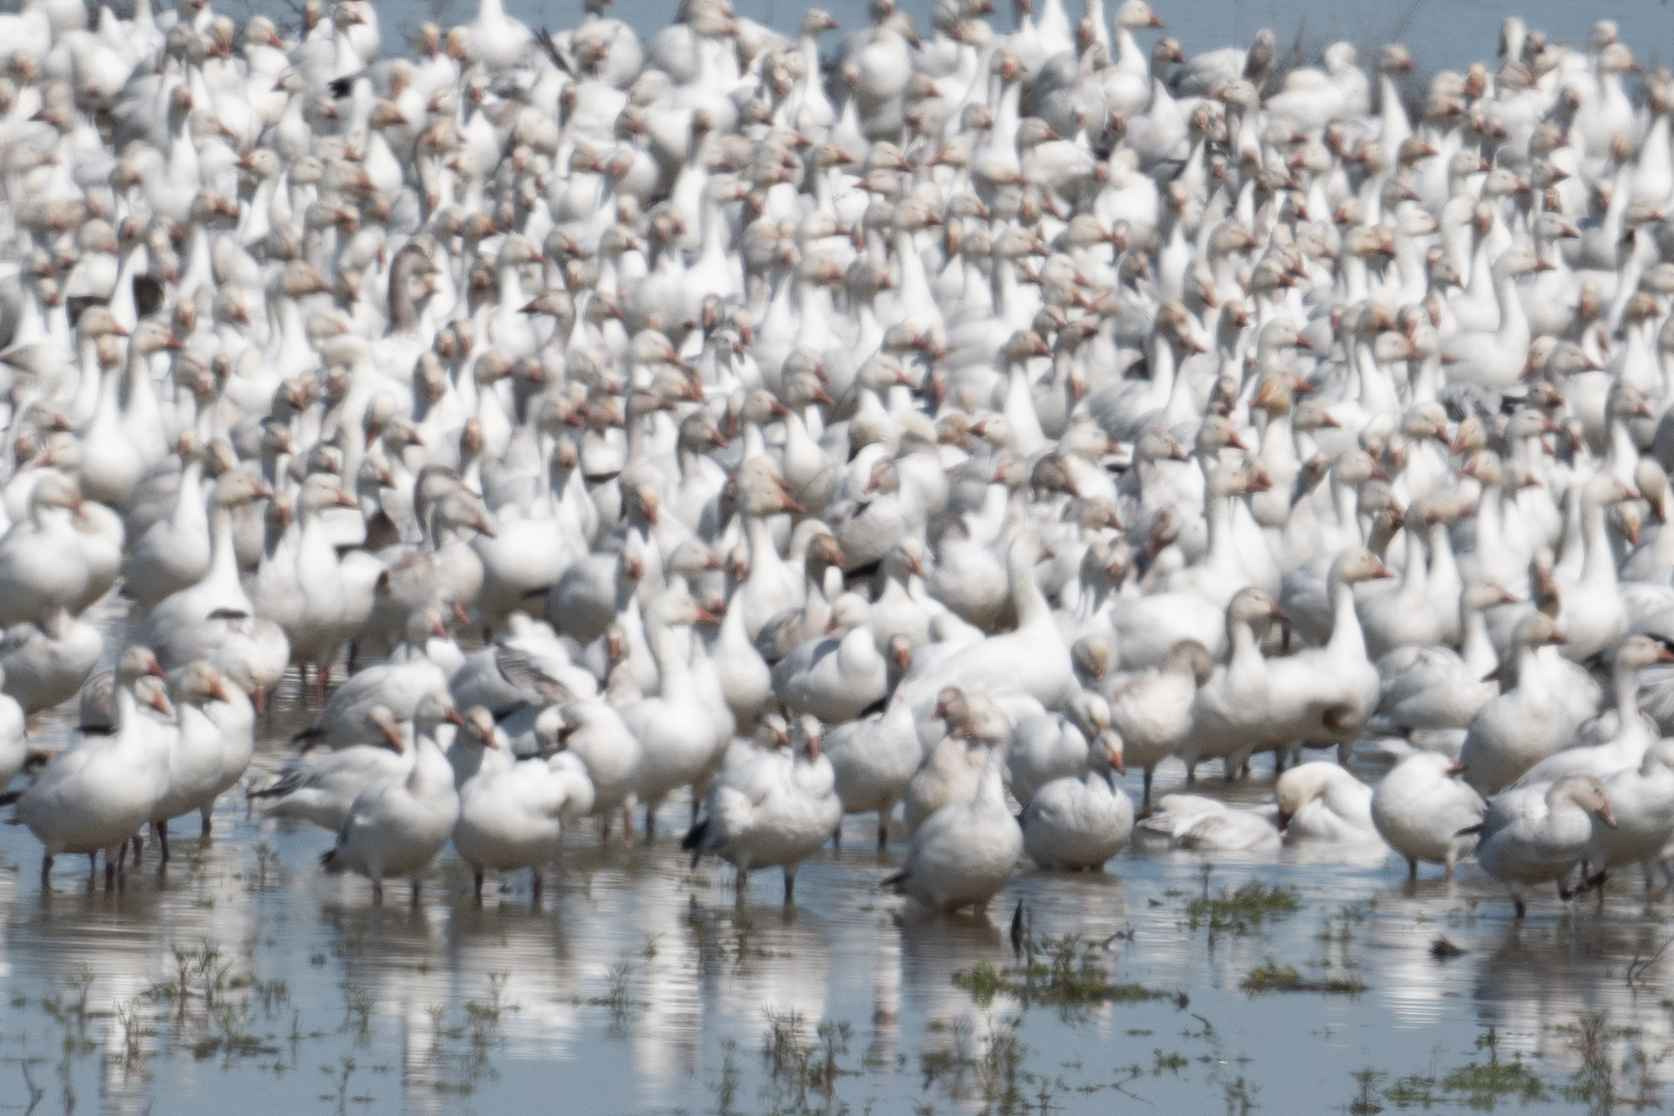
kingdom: Animalia
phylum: Chordata
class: Aves
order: Anseriformes
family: Anatidae
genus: Anser
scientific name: Anser caerulescens
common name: Snow goose
